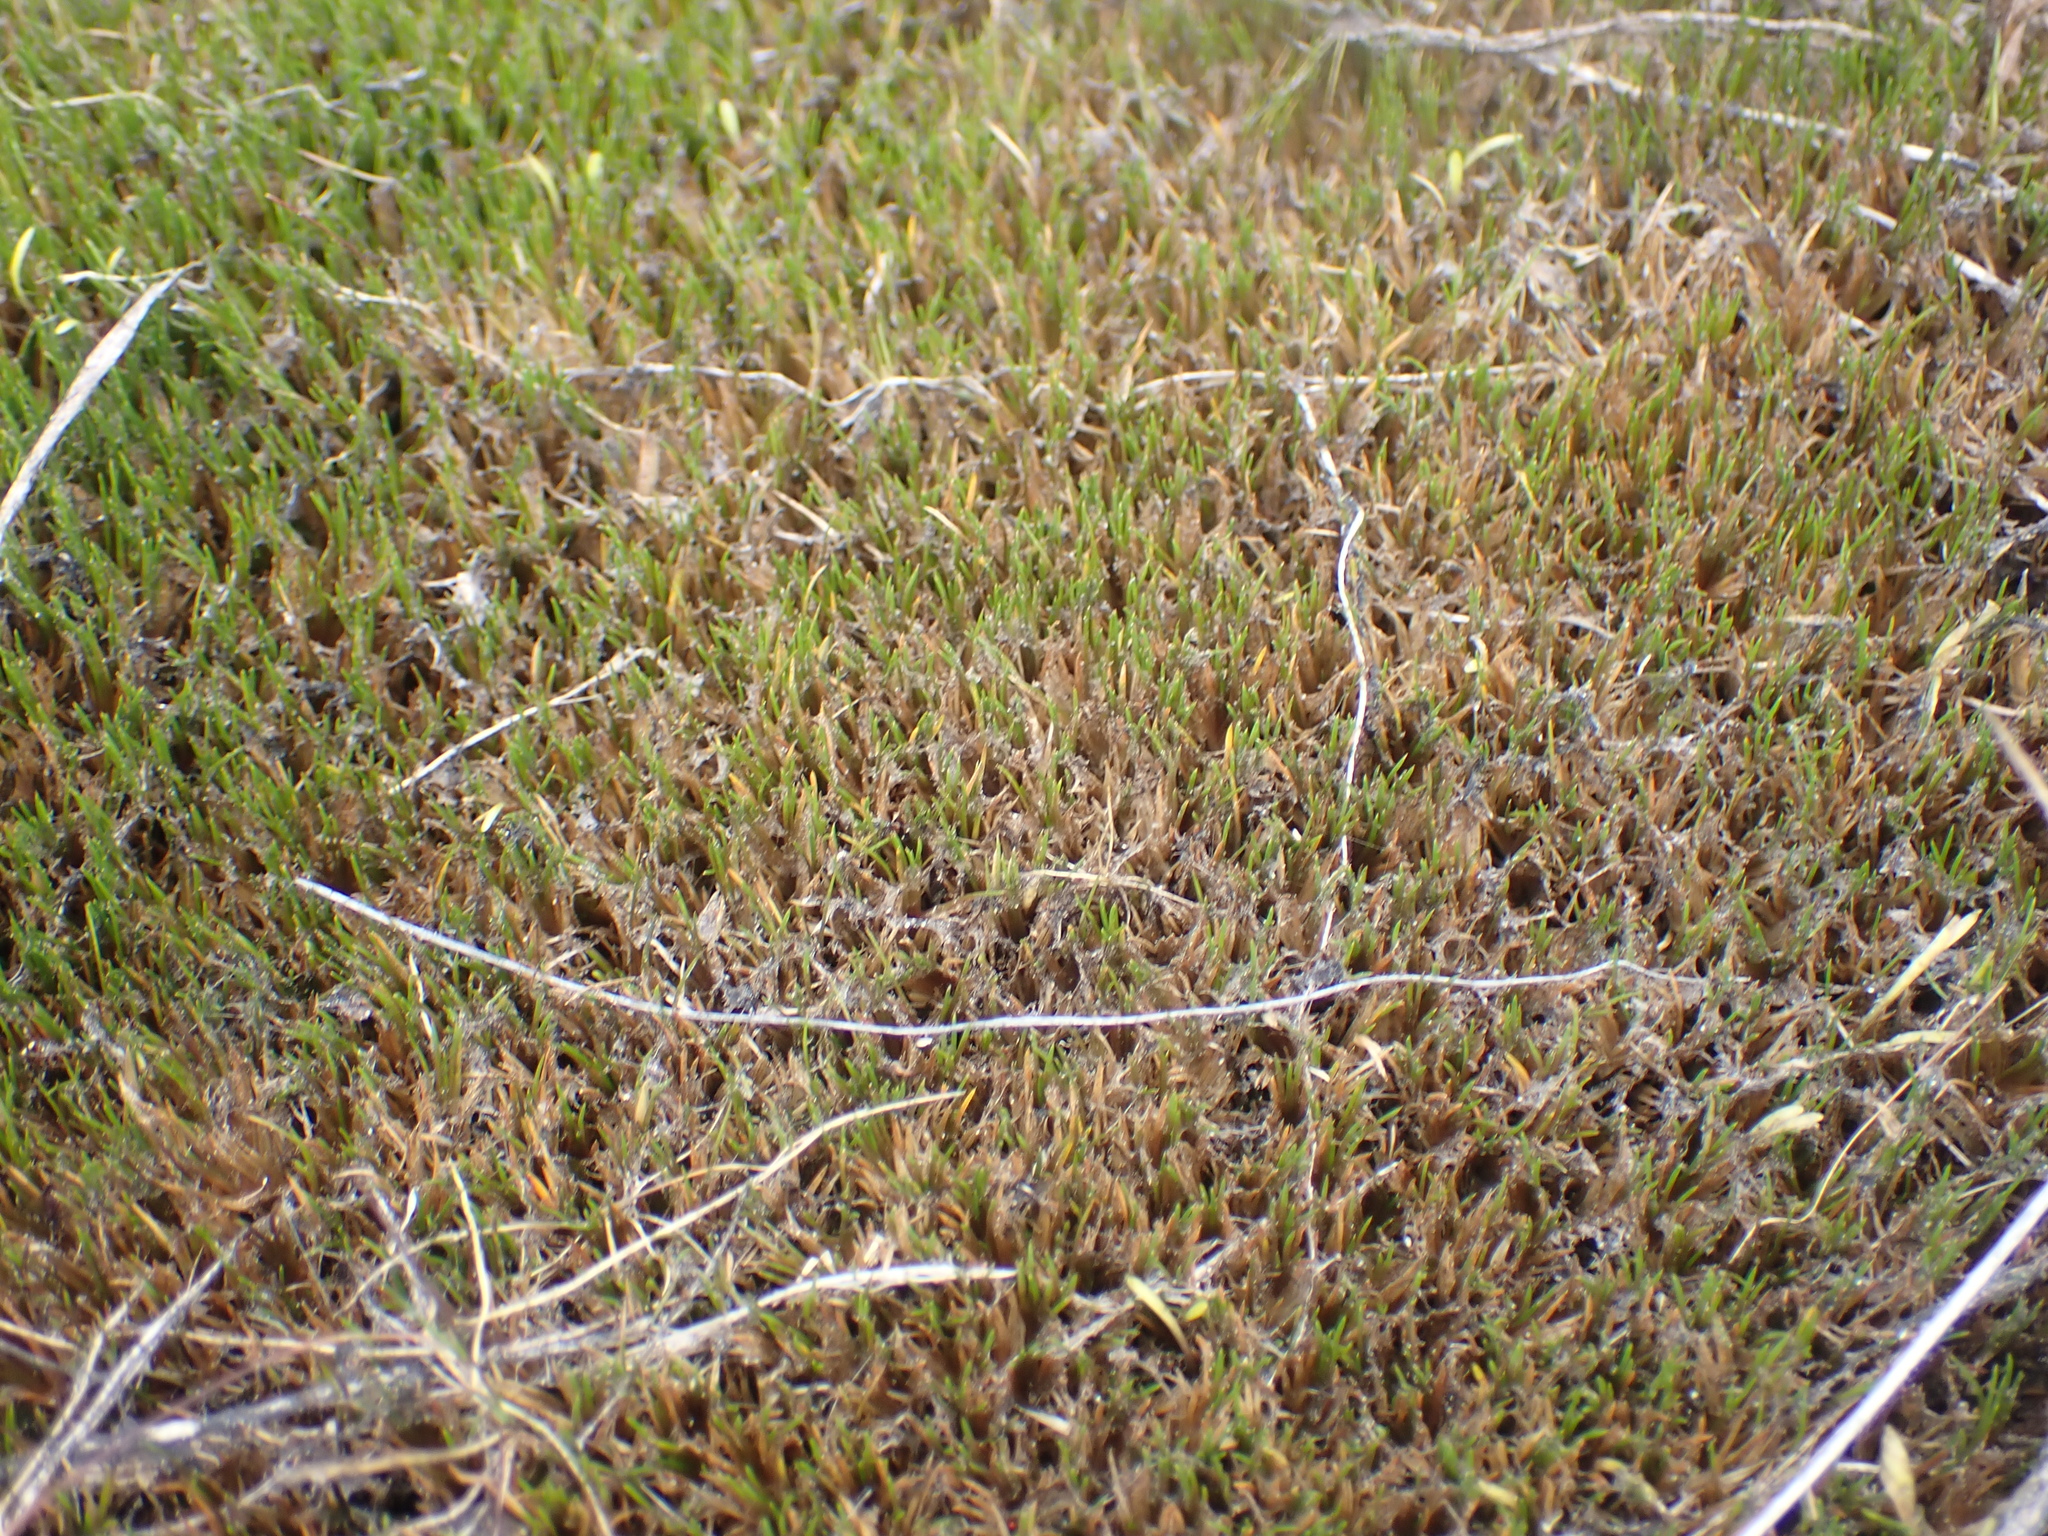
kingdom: Plantae
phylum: Tracheophyta
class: Liliopsida
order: Poales
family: Restionaceae
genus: Gaimardia
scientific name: Gaimardia setacea
